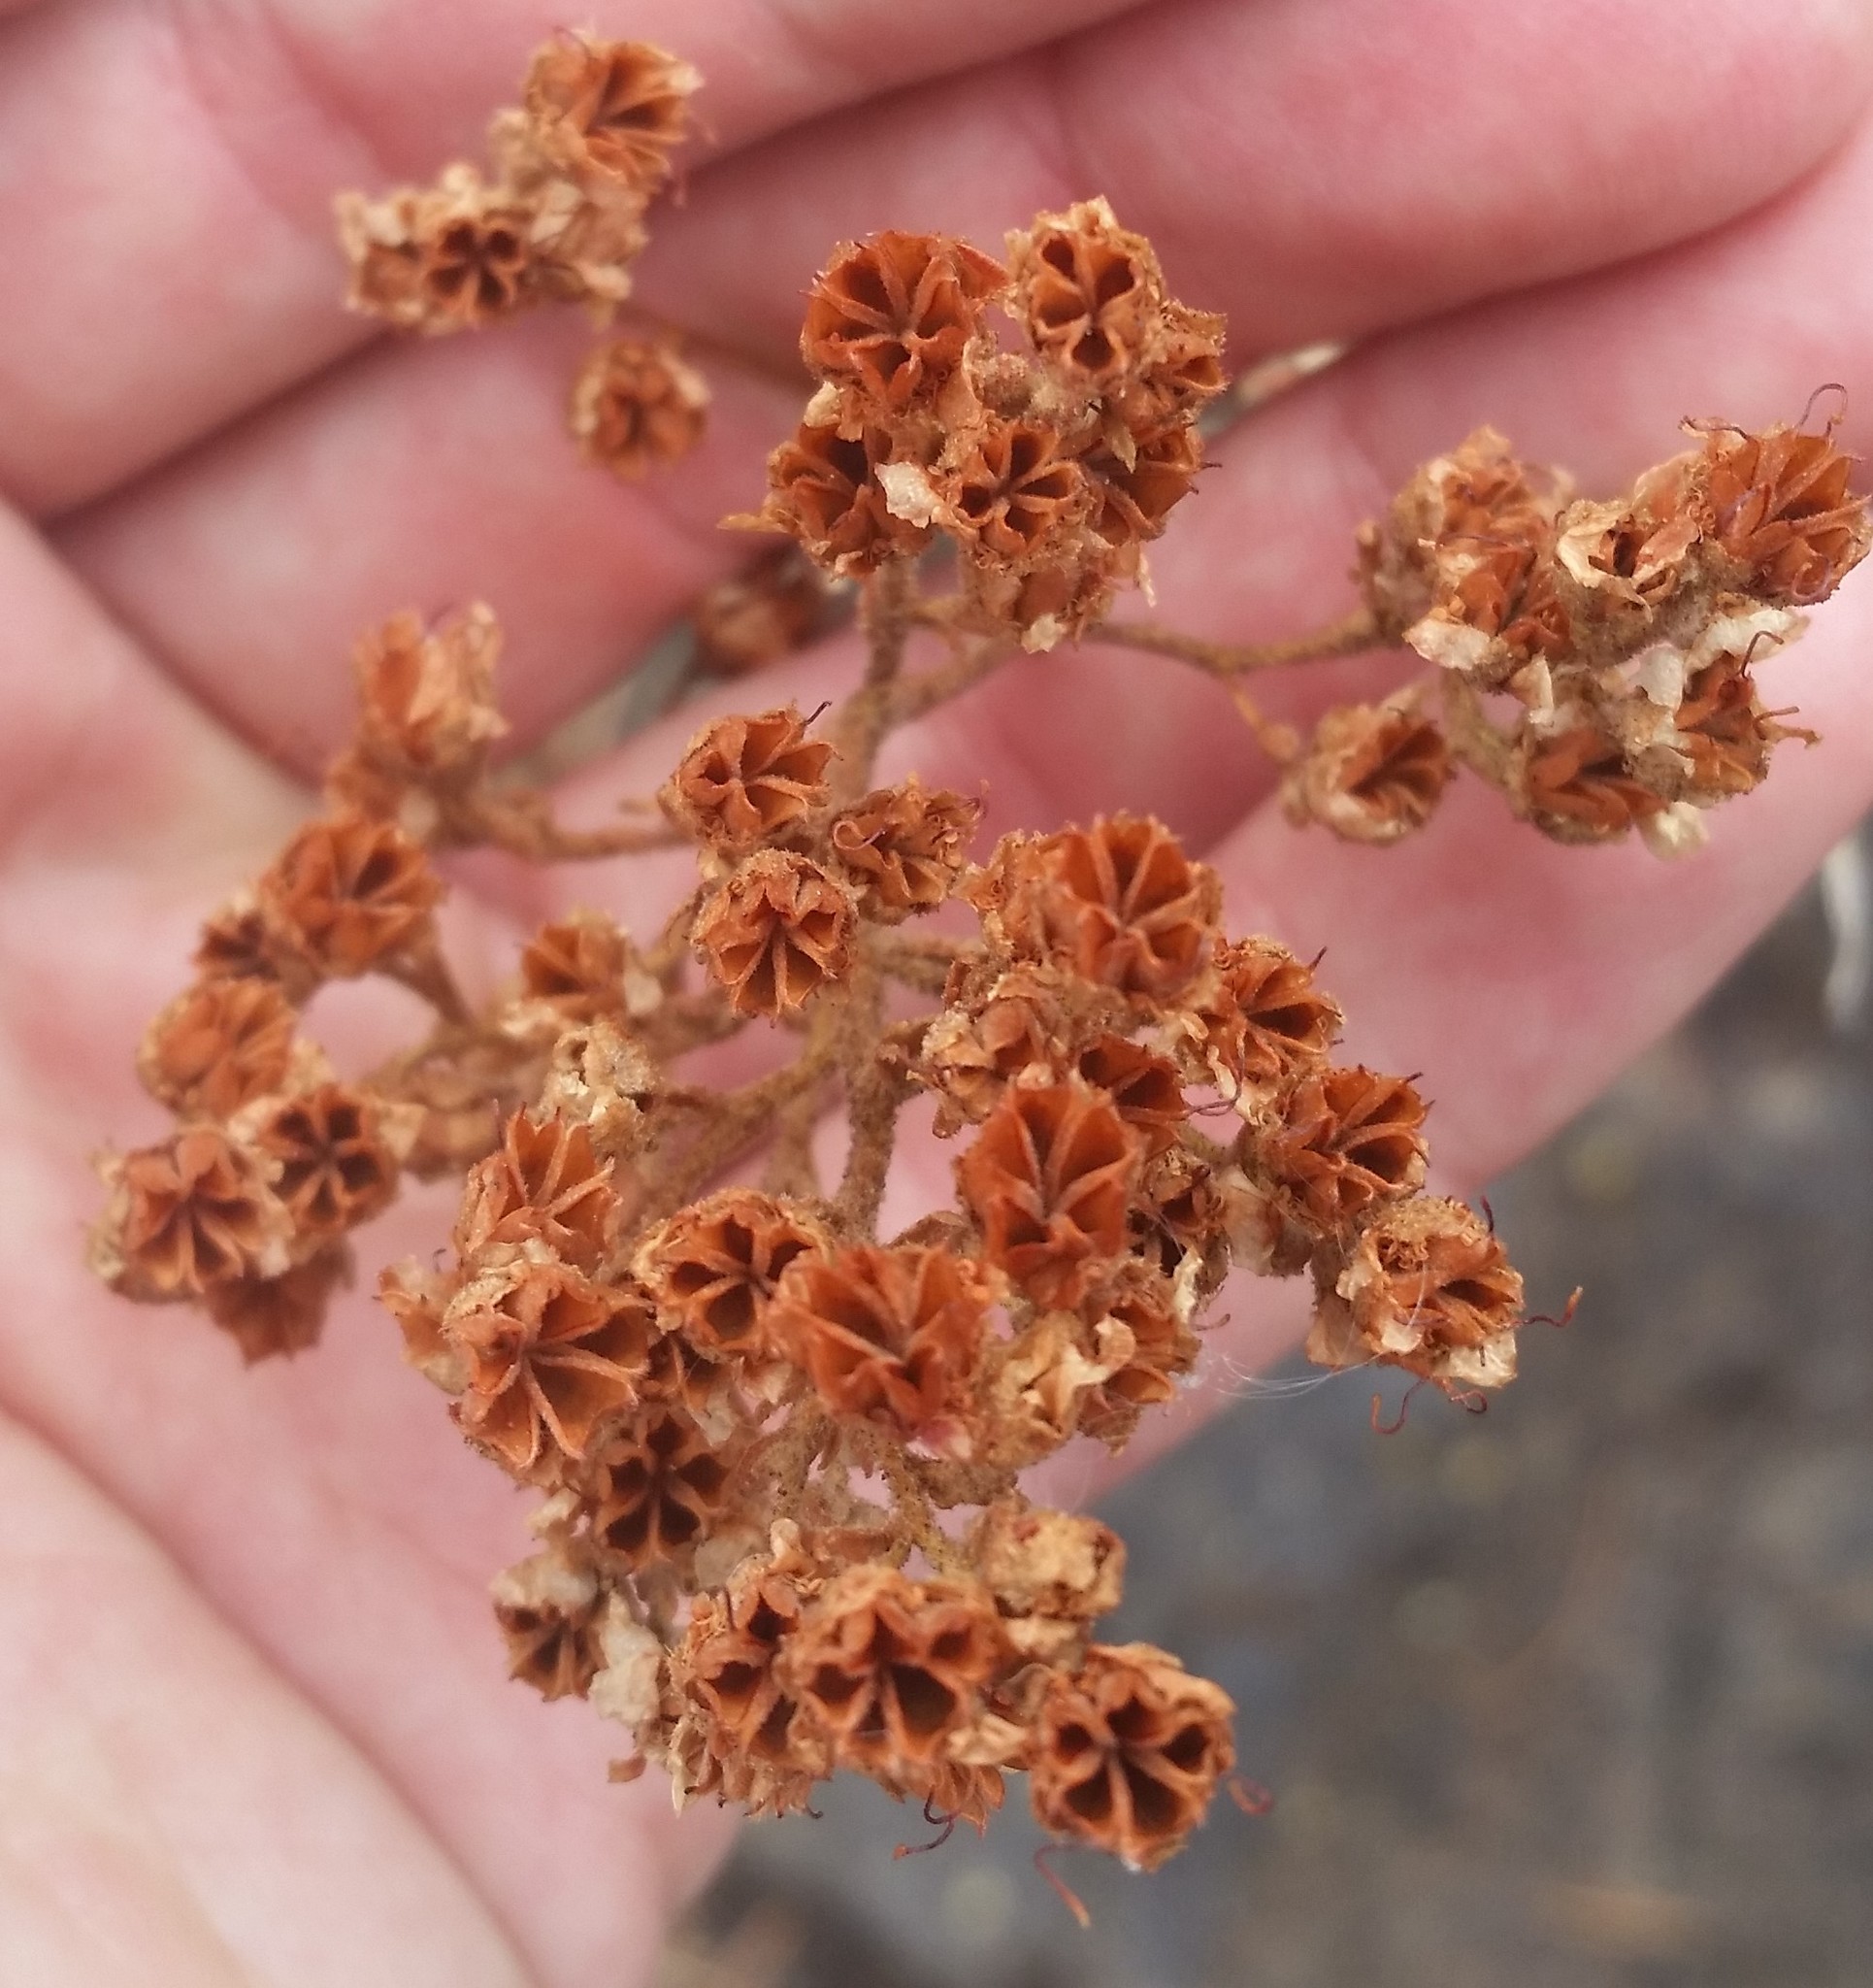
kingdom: Plantae
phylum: Tracheophyta
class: Magnoliopsida
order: Rosales
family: Rosaceae
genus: Chamaebatiaria
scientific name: Chamaebatiaria millefolium
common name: Fernbush
